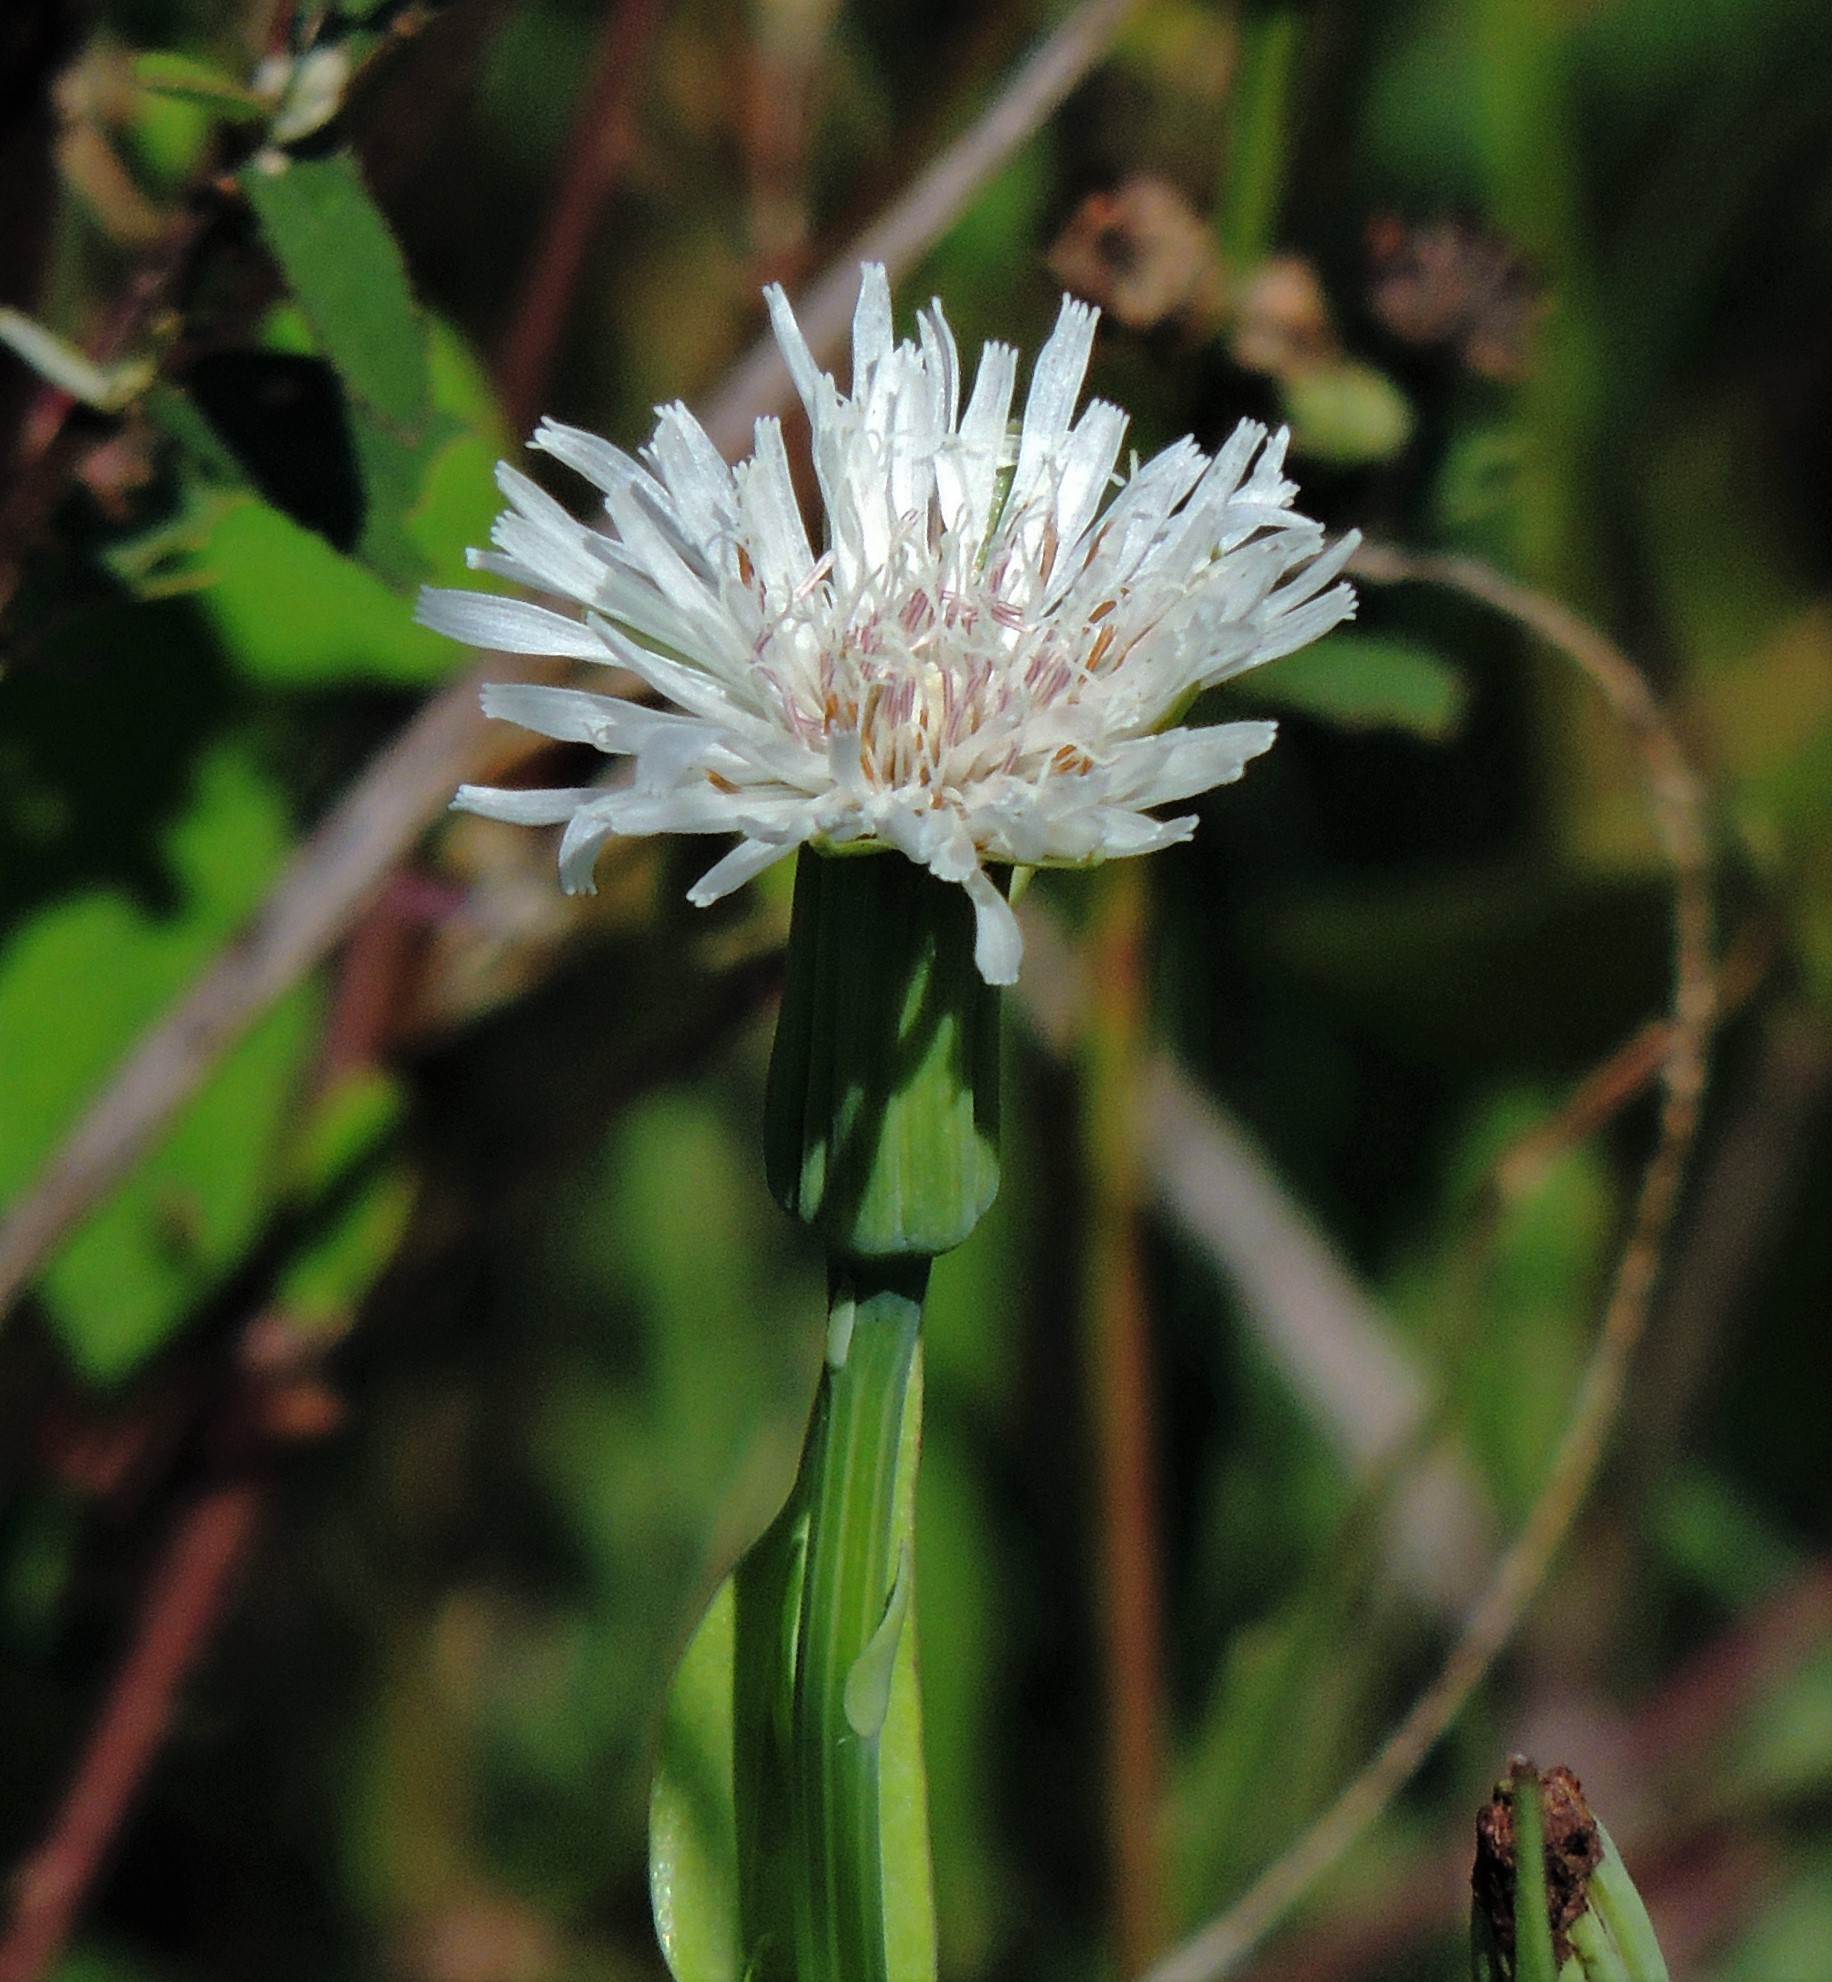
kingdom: Plantae
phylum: Tracheophyta
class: Magnoliopsida
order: Asterales
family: Asteraceae
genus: Picrosia
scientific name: Picrosia longifolia
